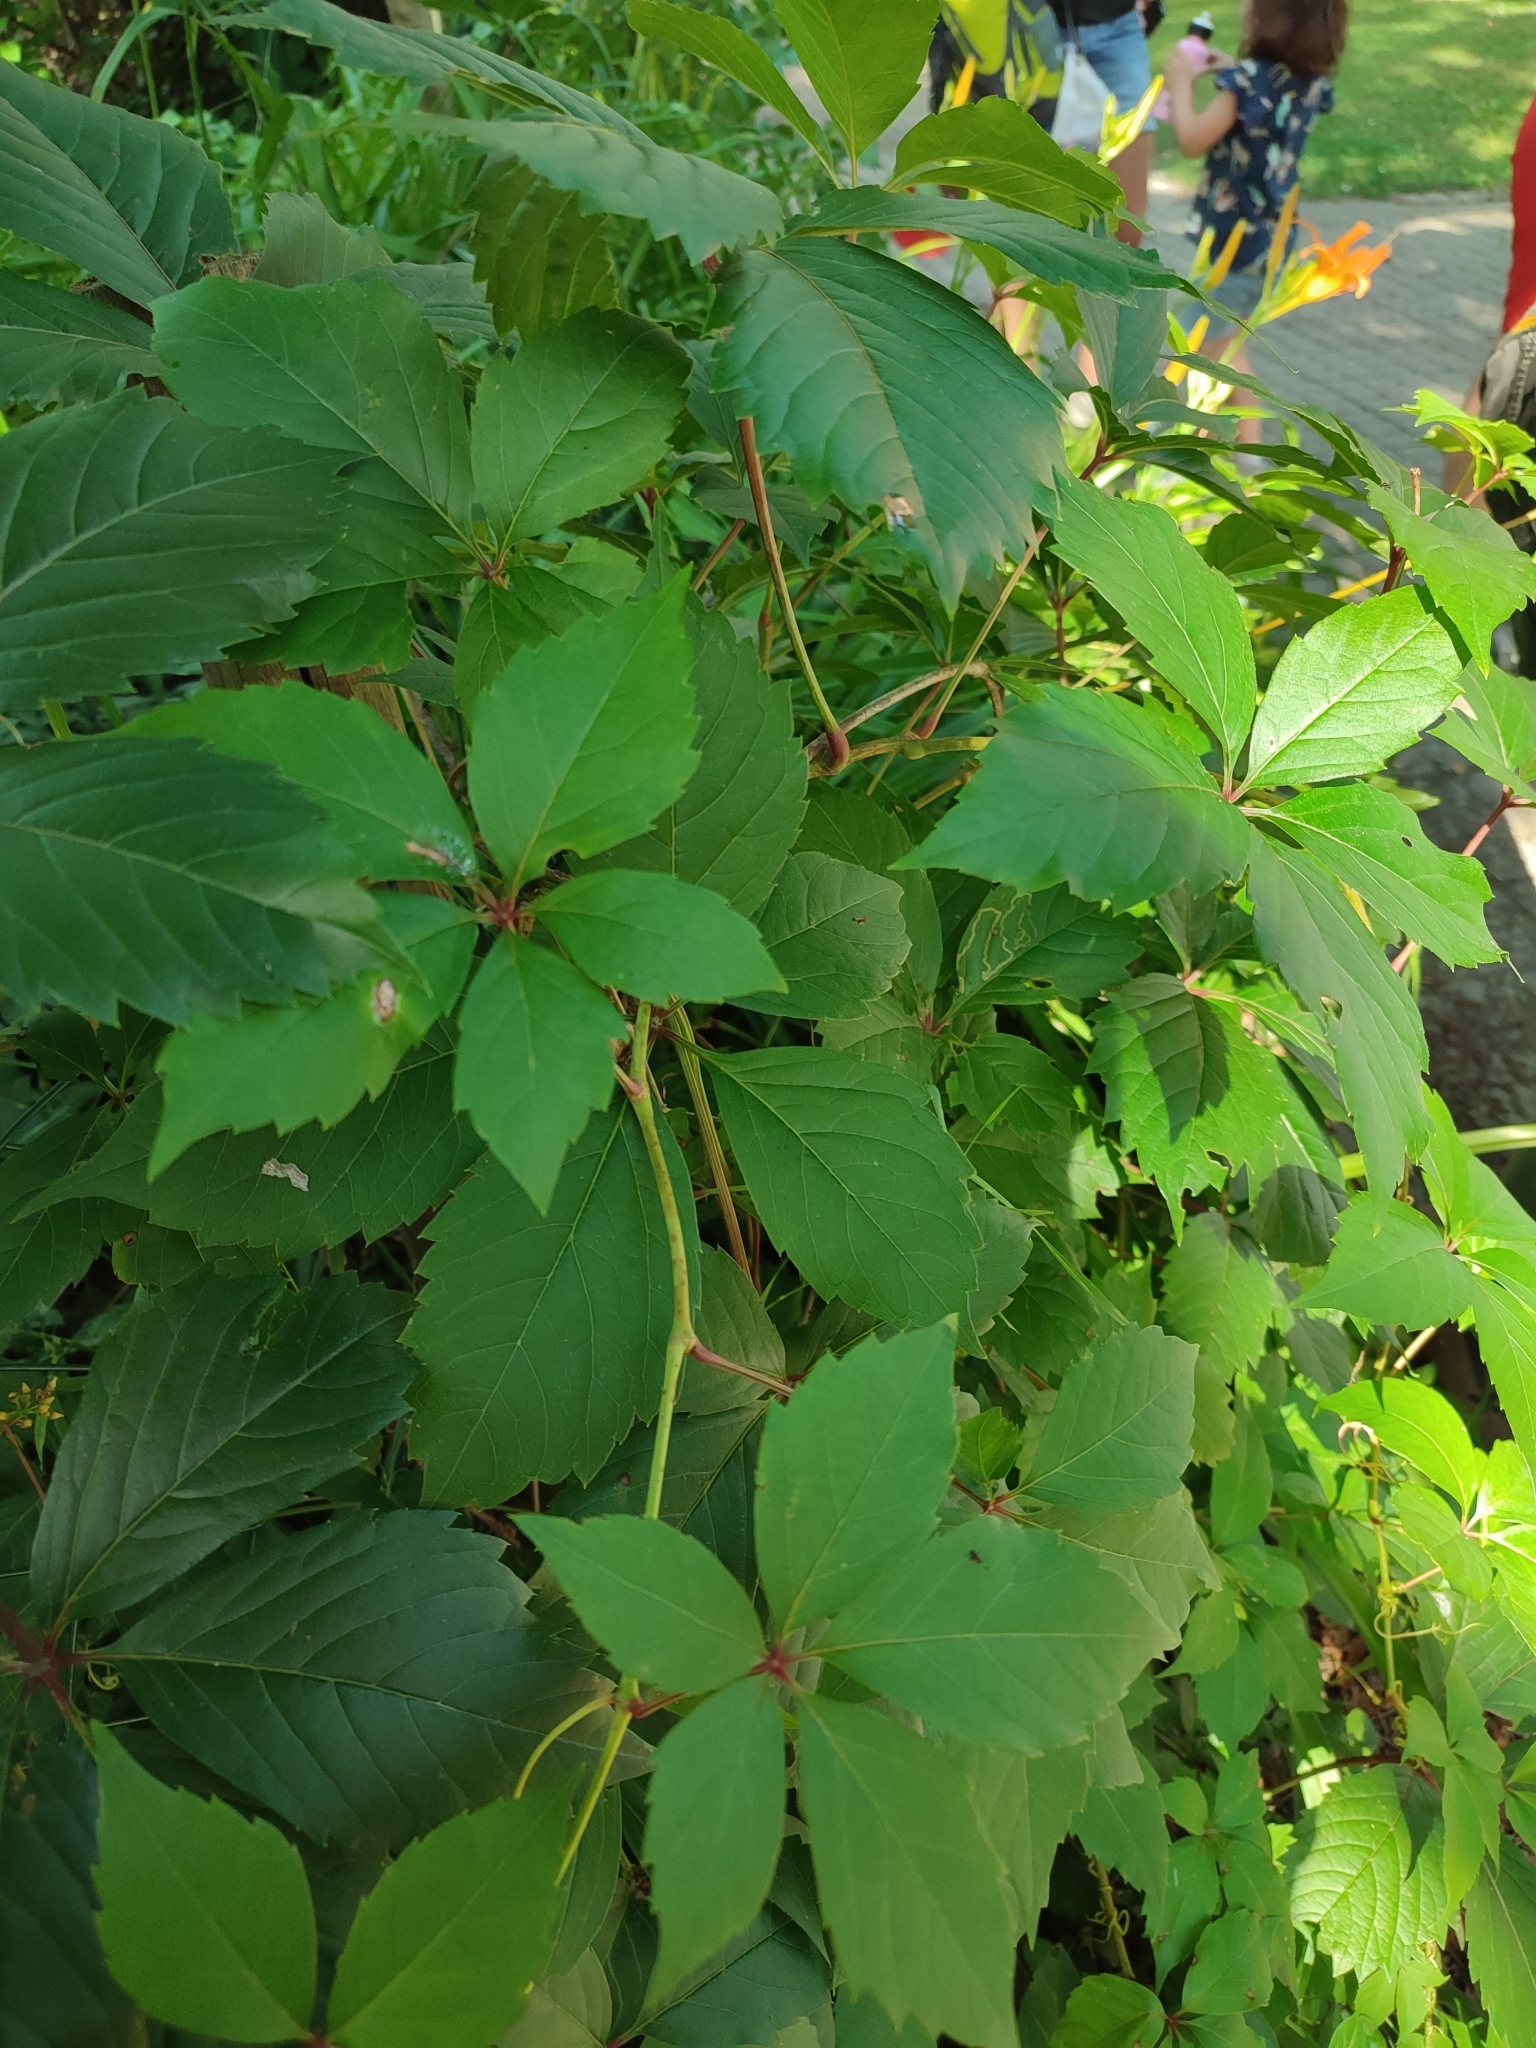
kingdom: Plantae
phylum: Tracheophyta
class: Magnoliopsida
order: Vitales
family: Vitaceae
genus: Parthenocissus
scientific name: Parthenocissus inserta
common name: False virginia-creeper
